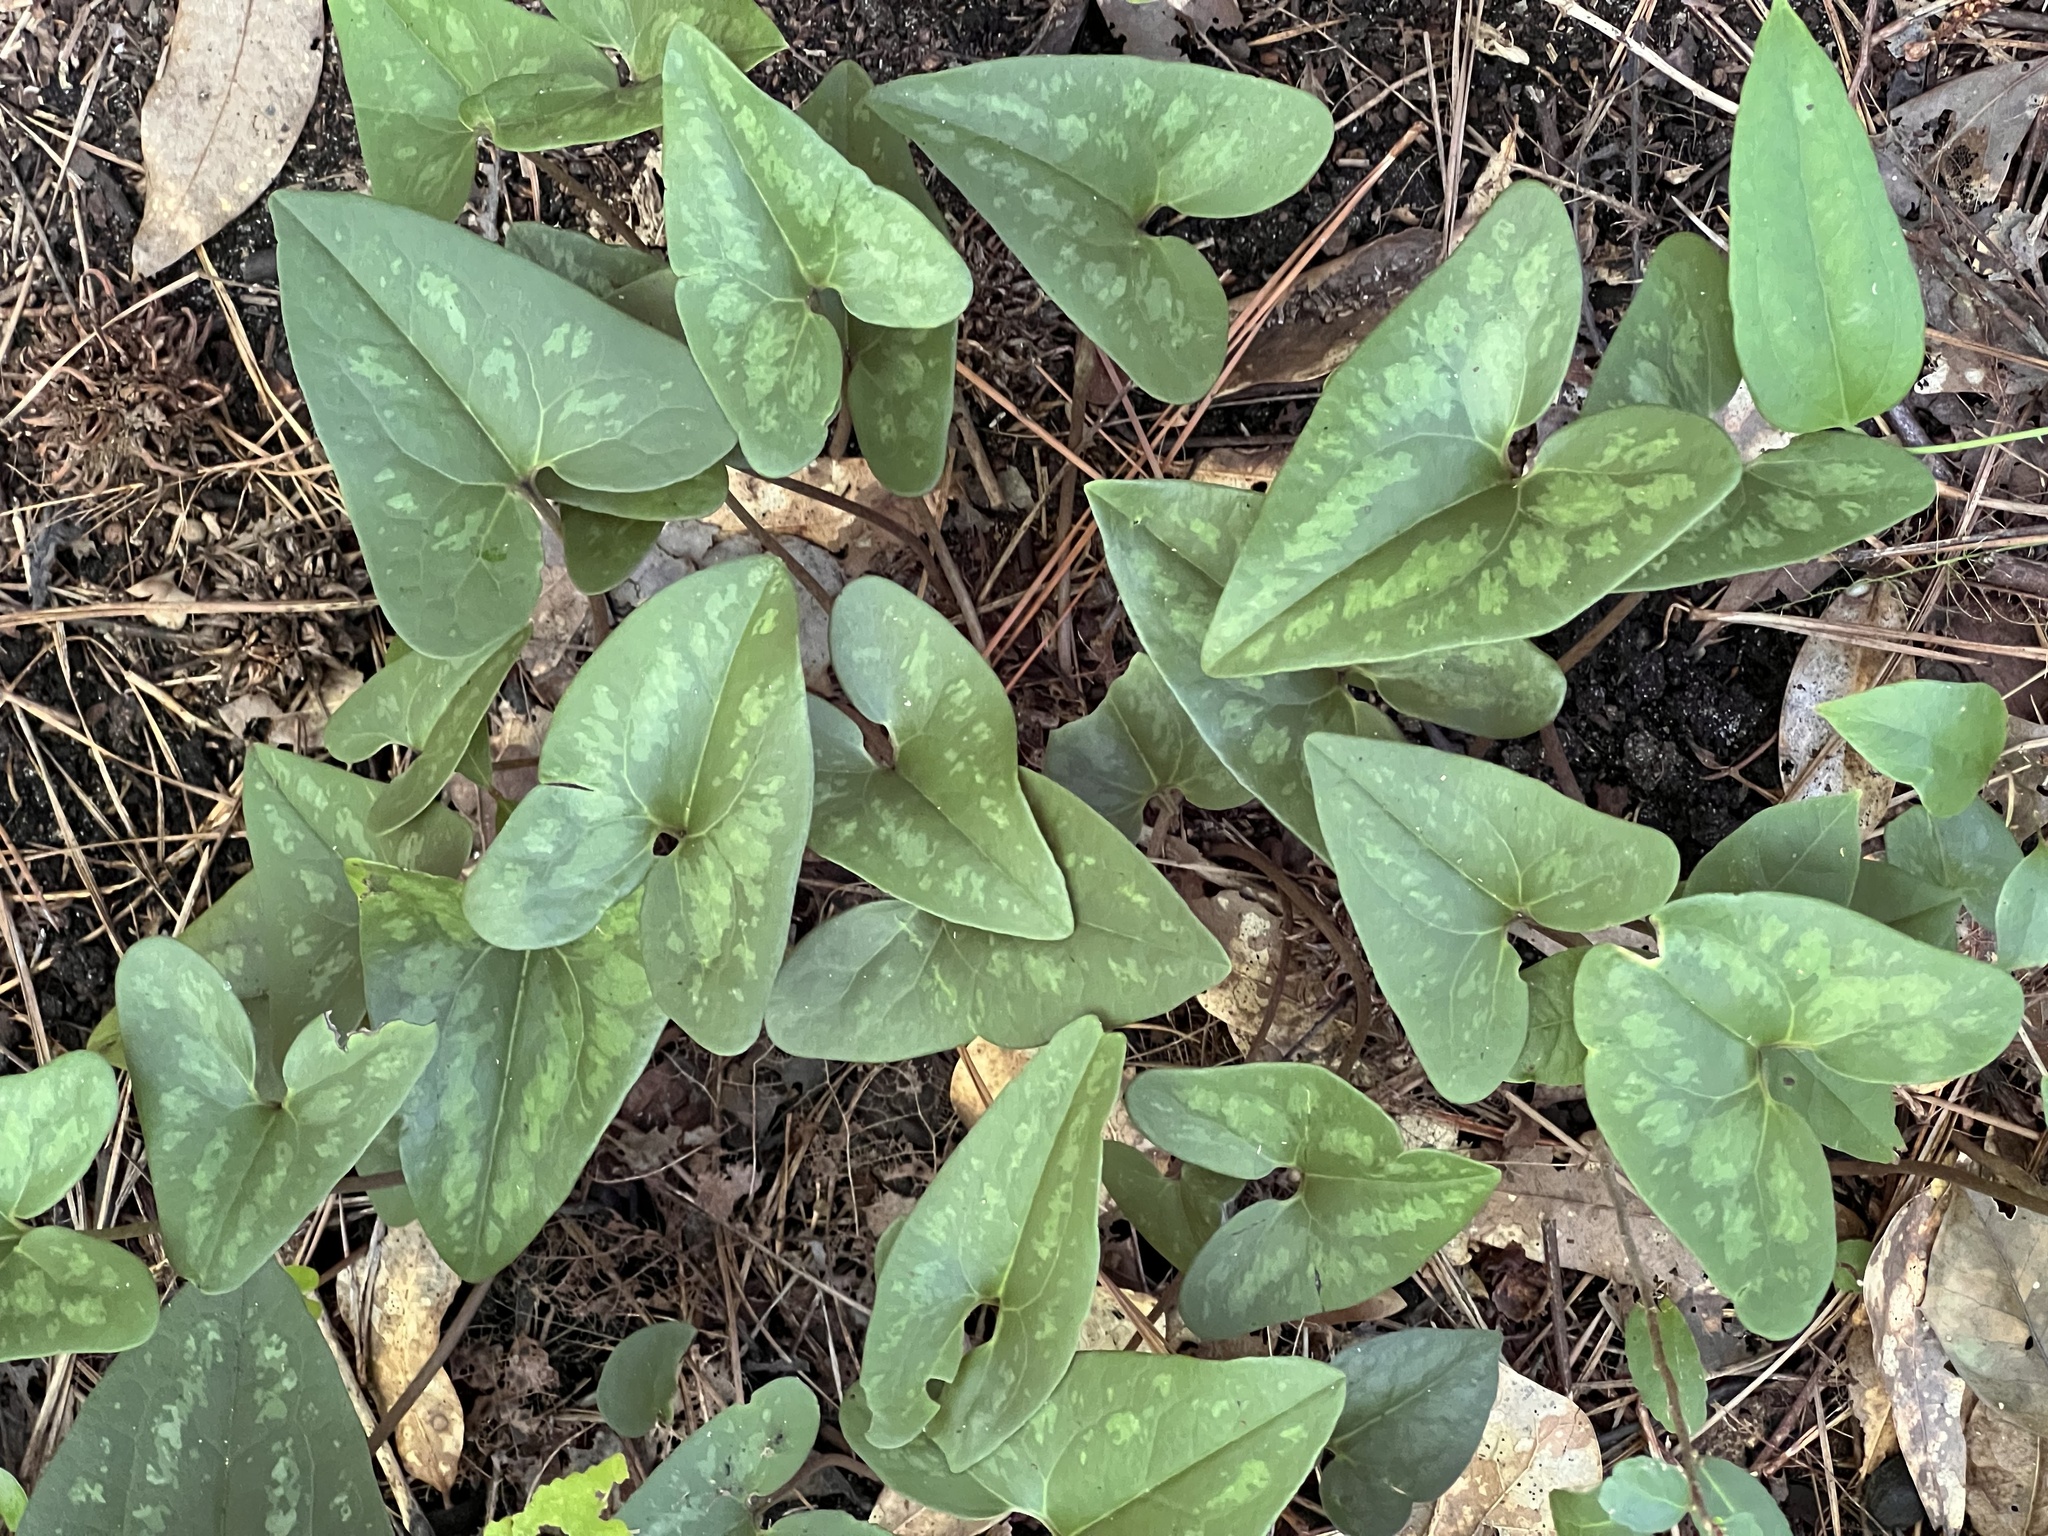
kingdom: Plantae
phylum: Tracheophyta
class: Magnoliopsida
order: Piperales
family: Aristolochiaceae
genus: Hexastylis
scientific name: Hexastylis arifolia
